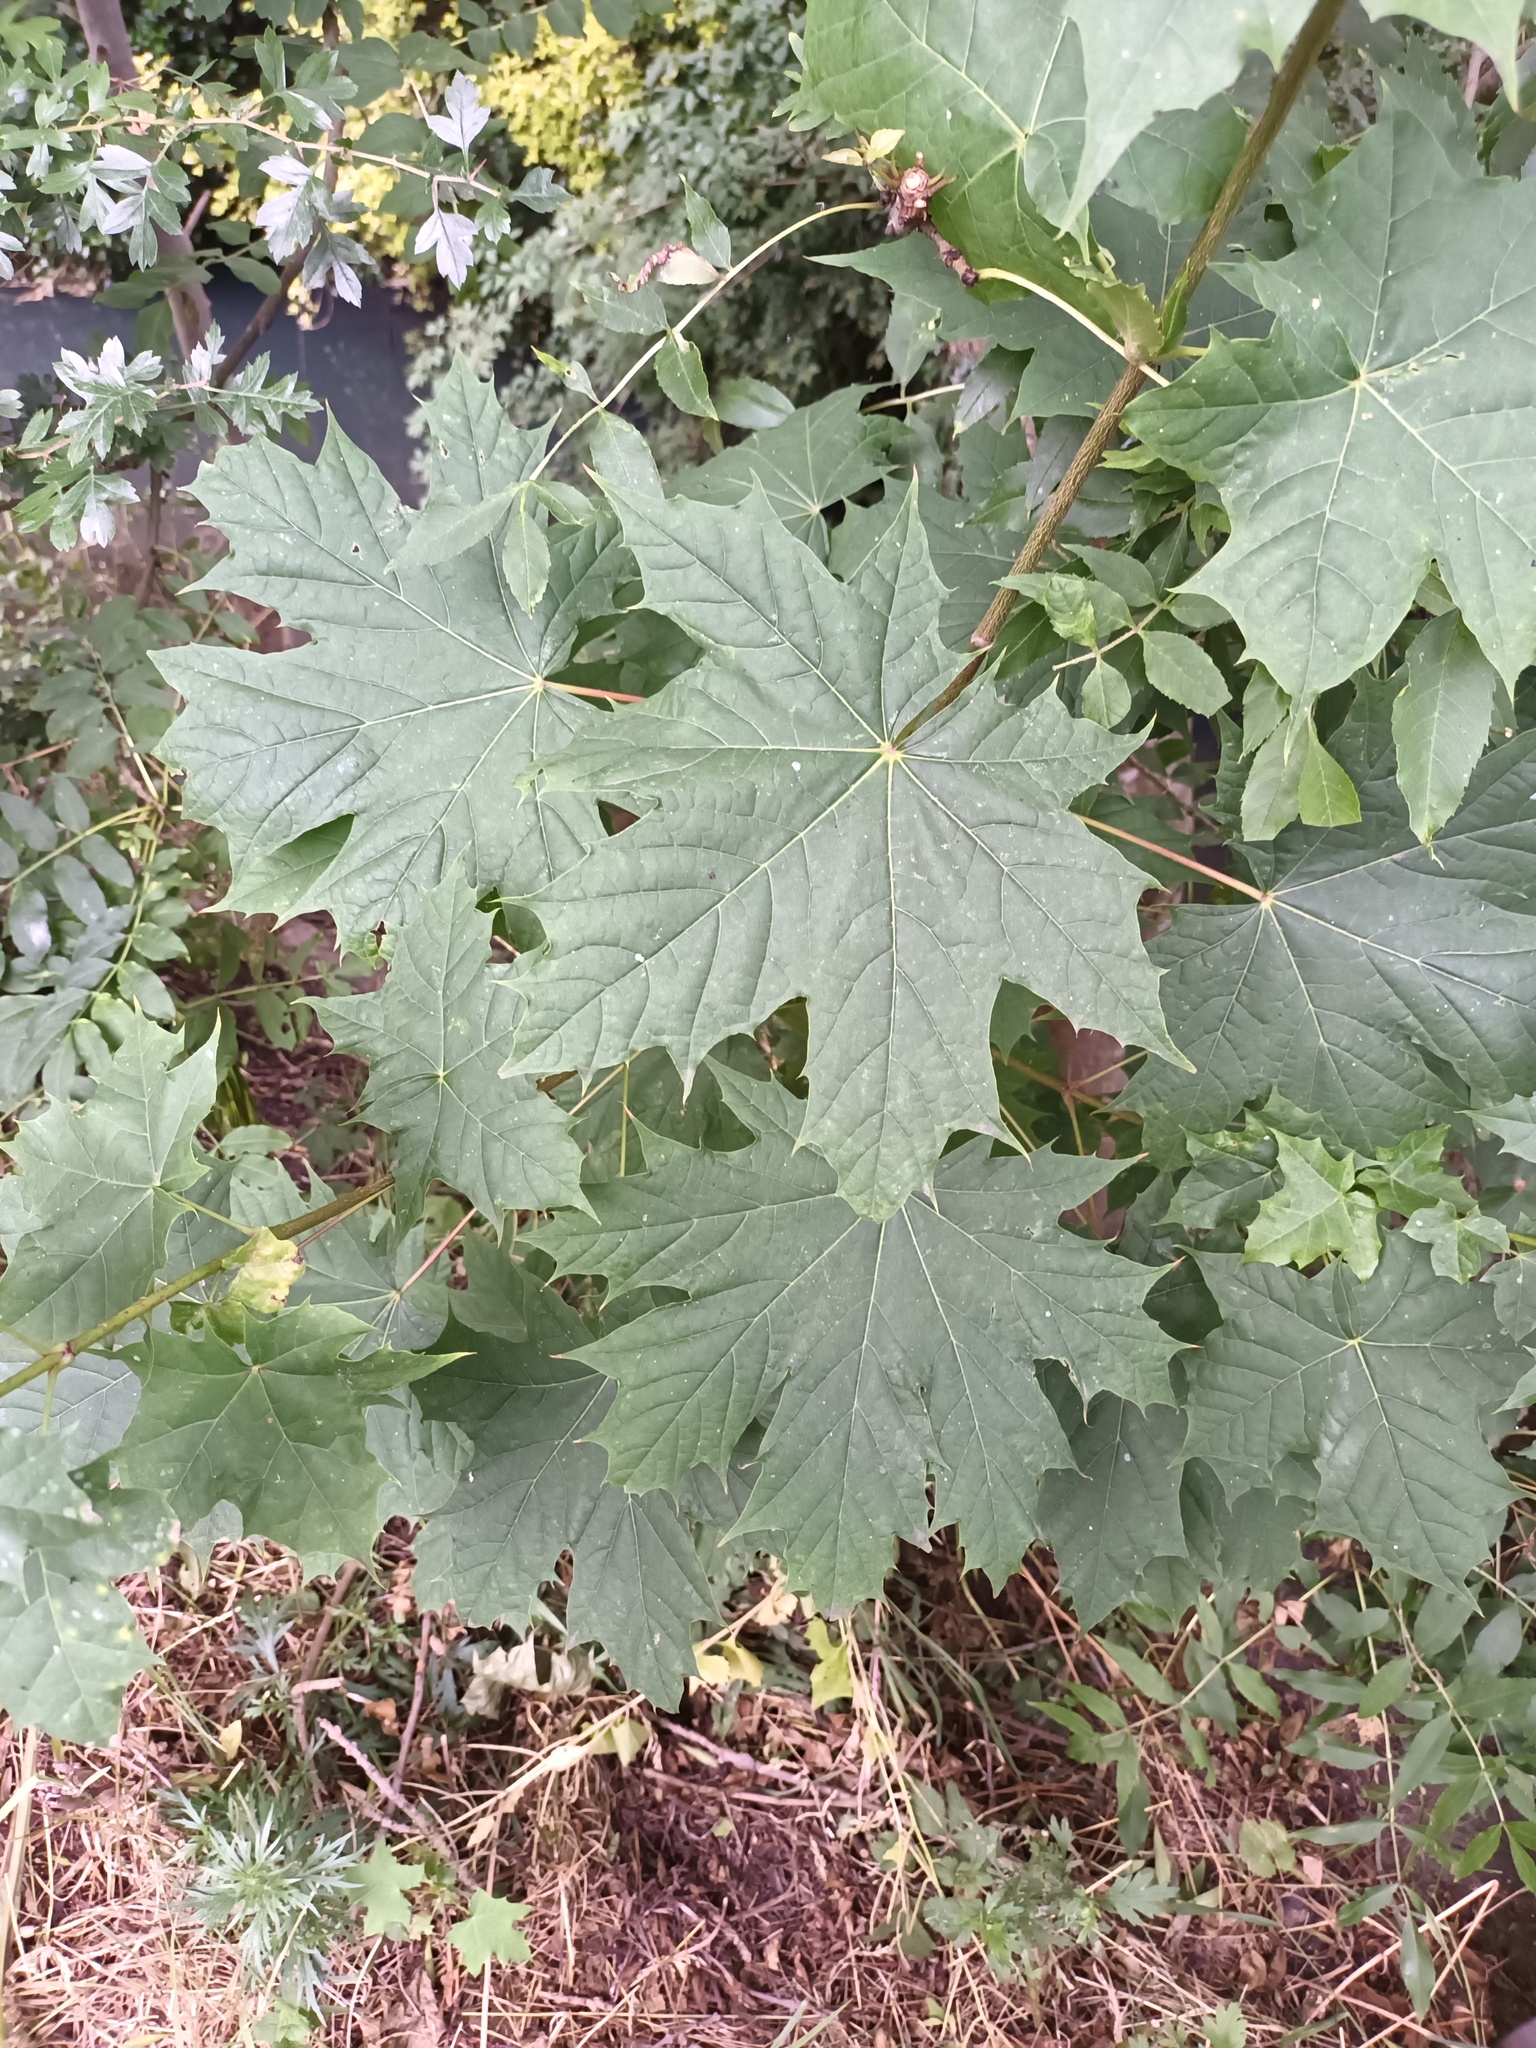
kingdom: Plantae
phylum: Tracheophyta
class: Magnoliopsida
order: Sapindales
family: Sapindaceae
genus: Acer
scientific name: Acer platanoides
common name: Norway maple
